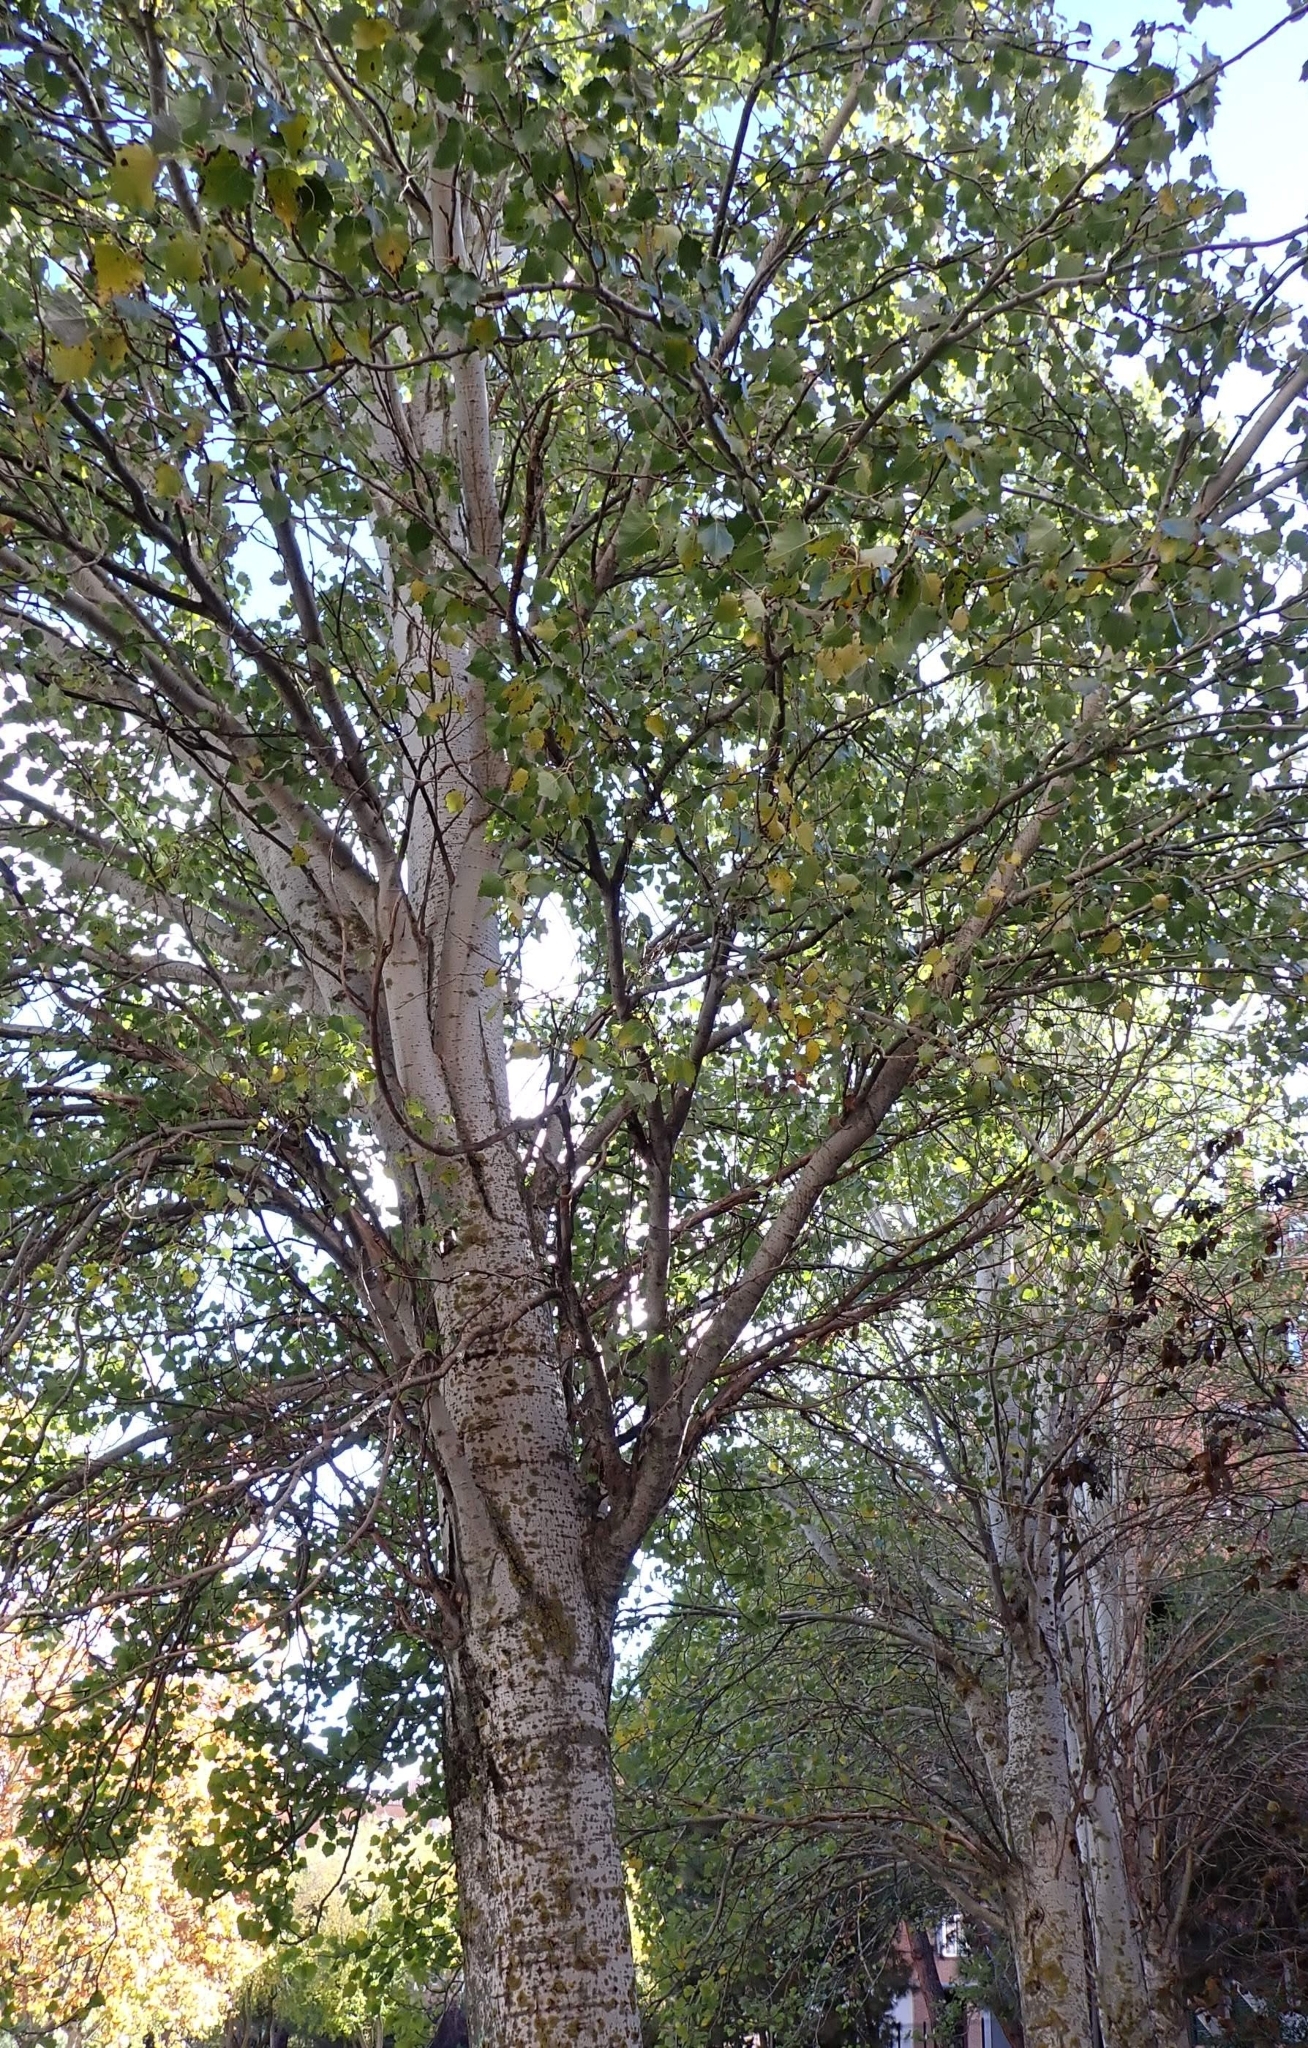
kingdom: Plantae
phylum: Tracheophyta
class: Magnoliopsida
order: Malpighiales
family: Salicaceae
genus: Populus
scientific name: Populus alba
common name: White poplar
